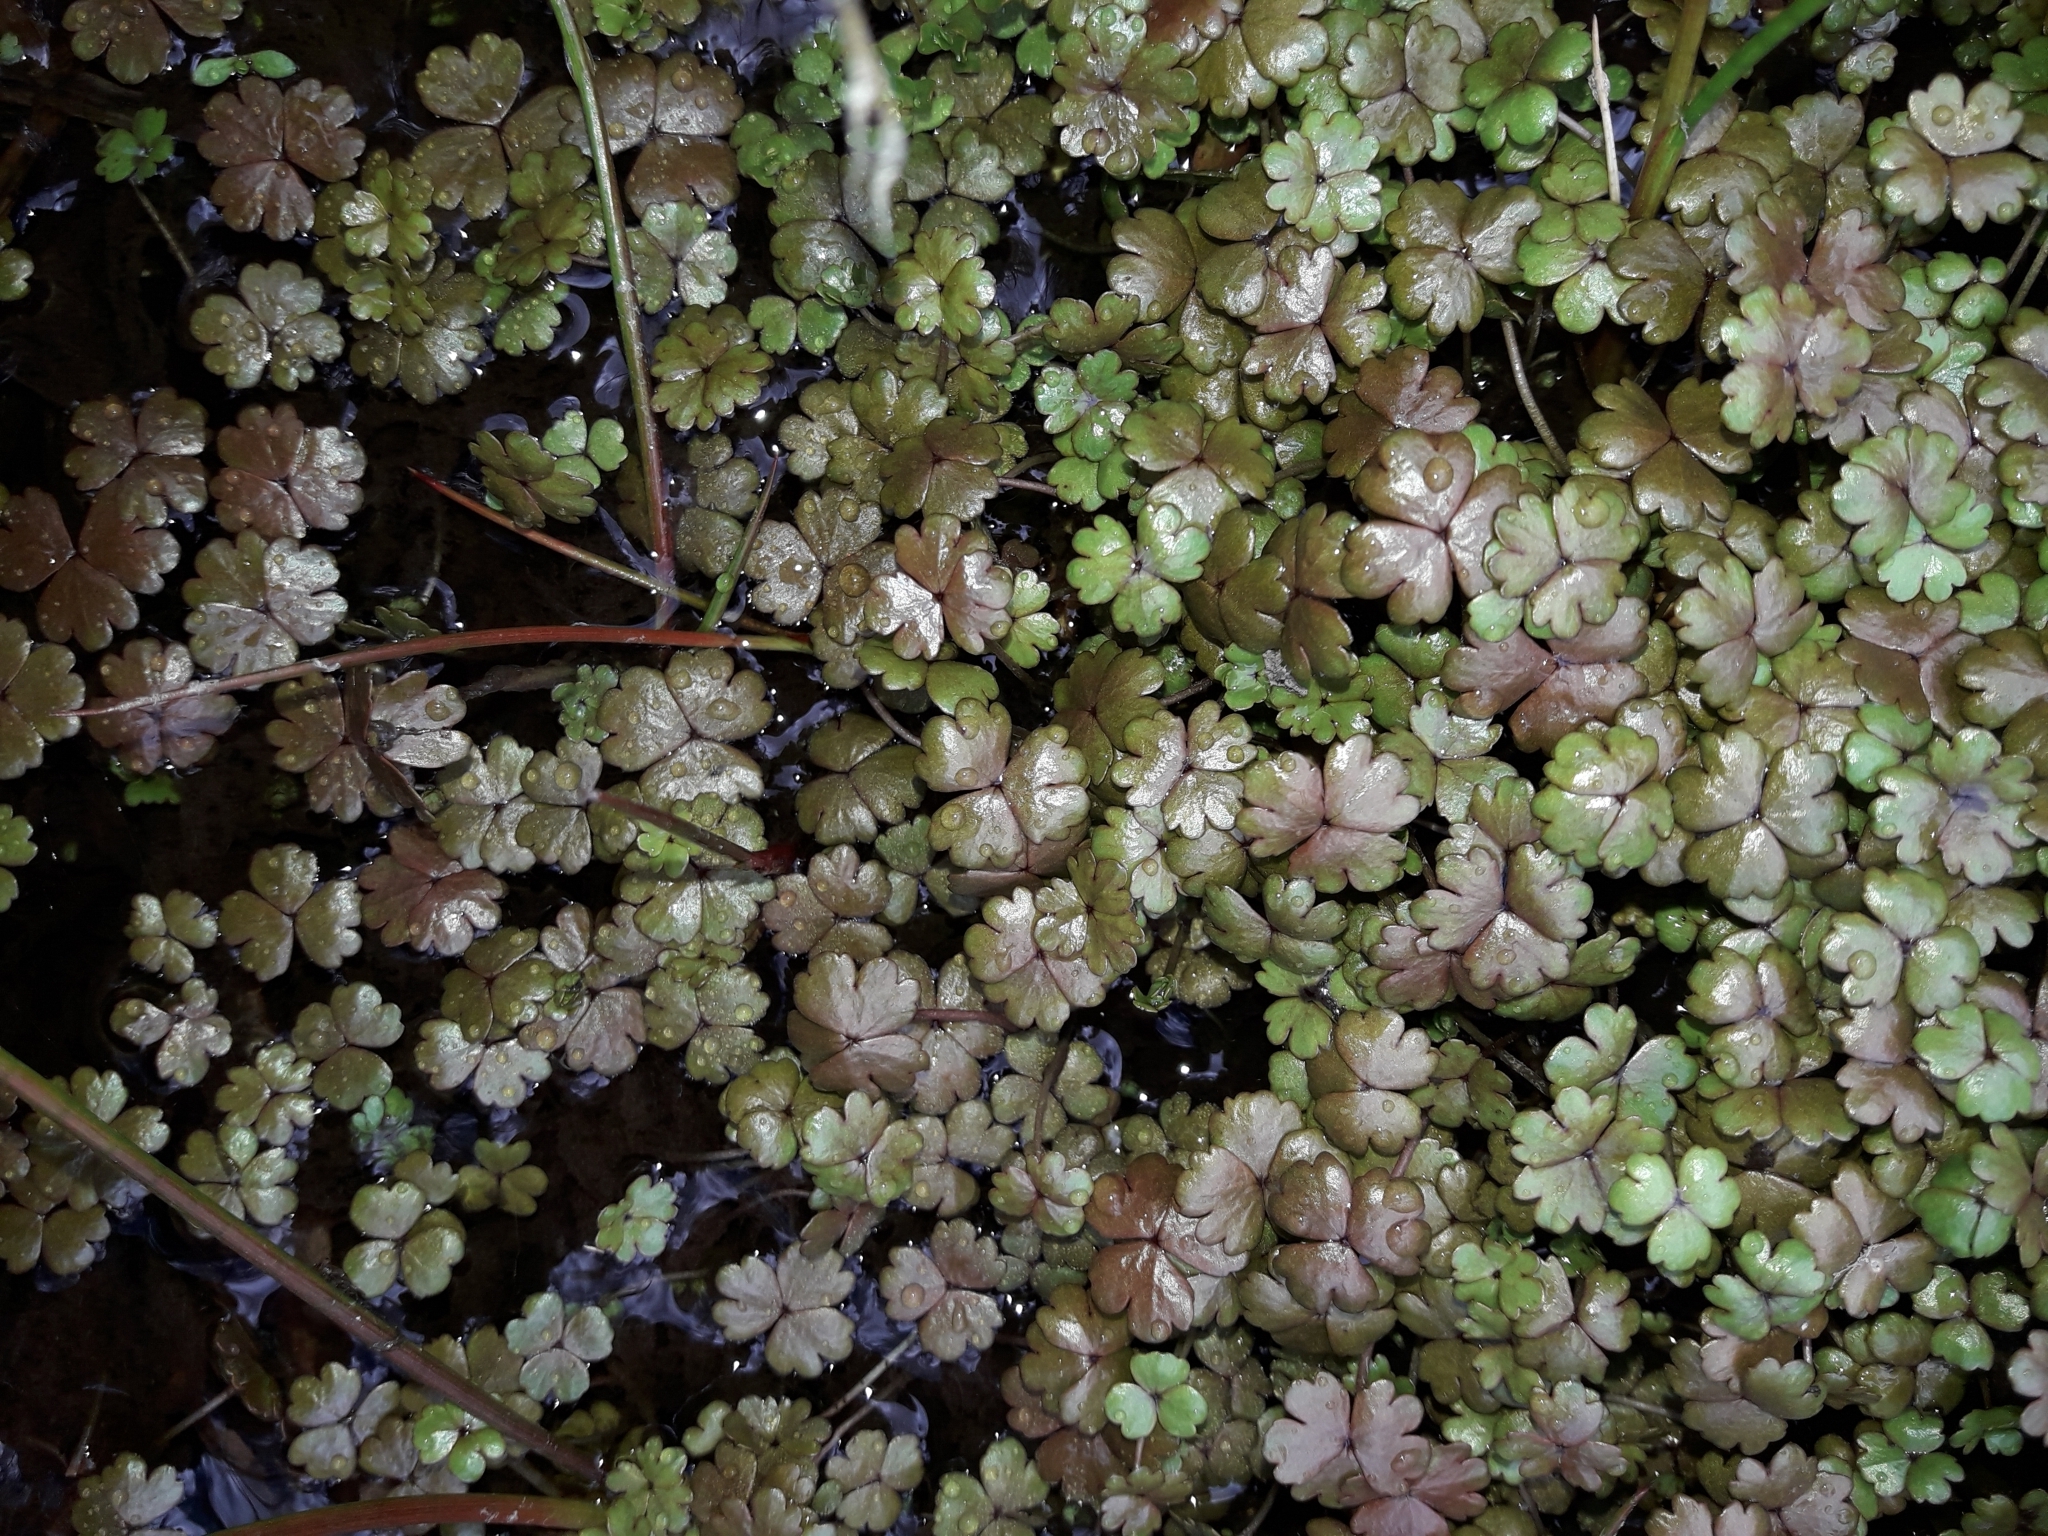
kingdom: Plantae
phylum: Tracheophyta
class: Magnoliopsida
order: Apiales
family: Araliaceae
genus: Hydrocotyle
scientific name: Hydrocotyle sulcata
